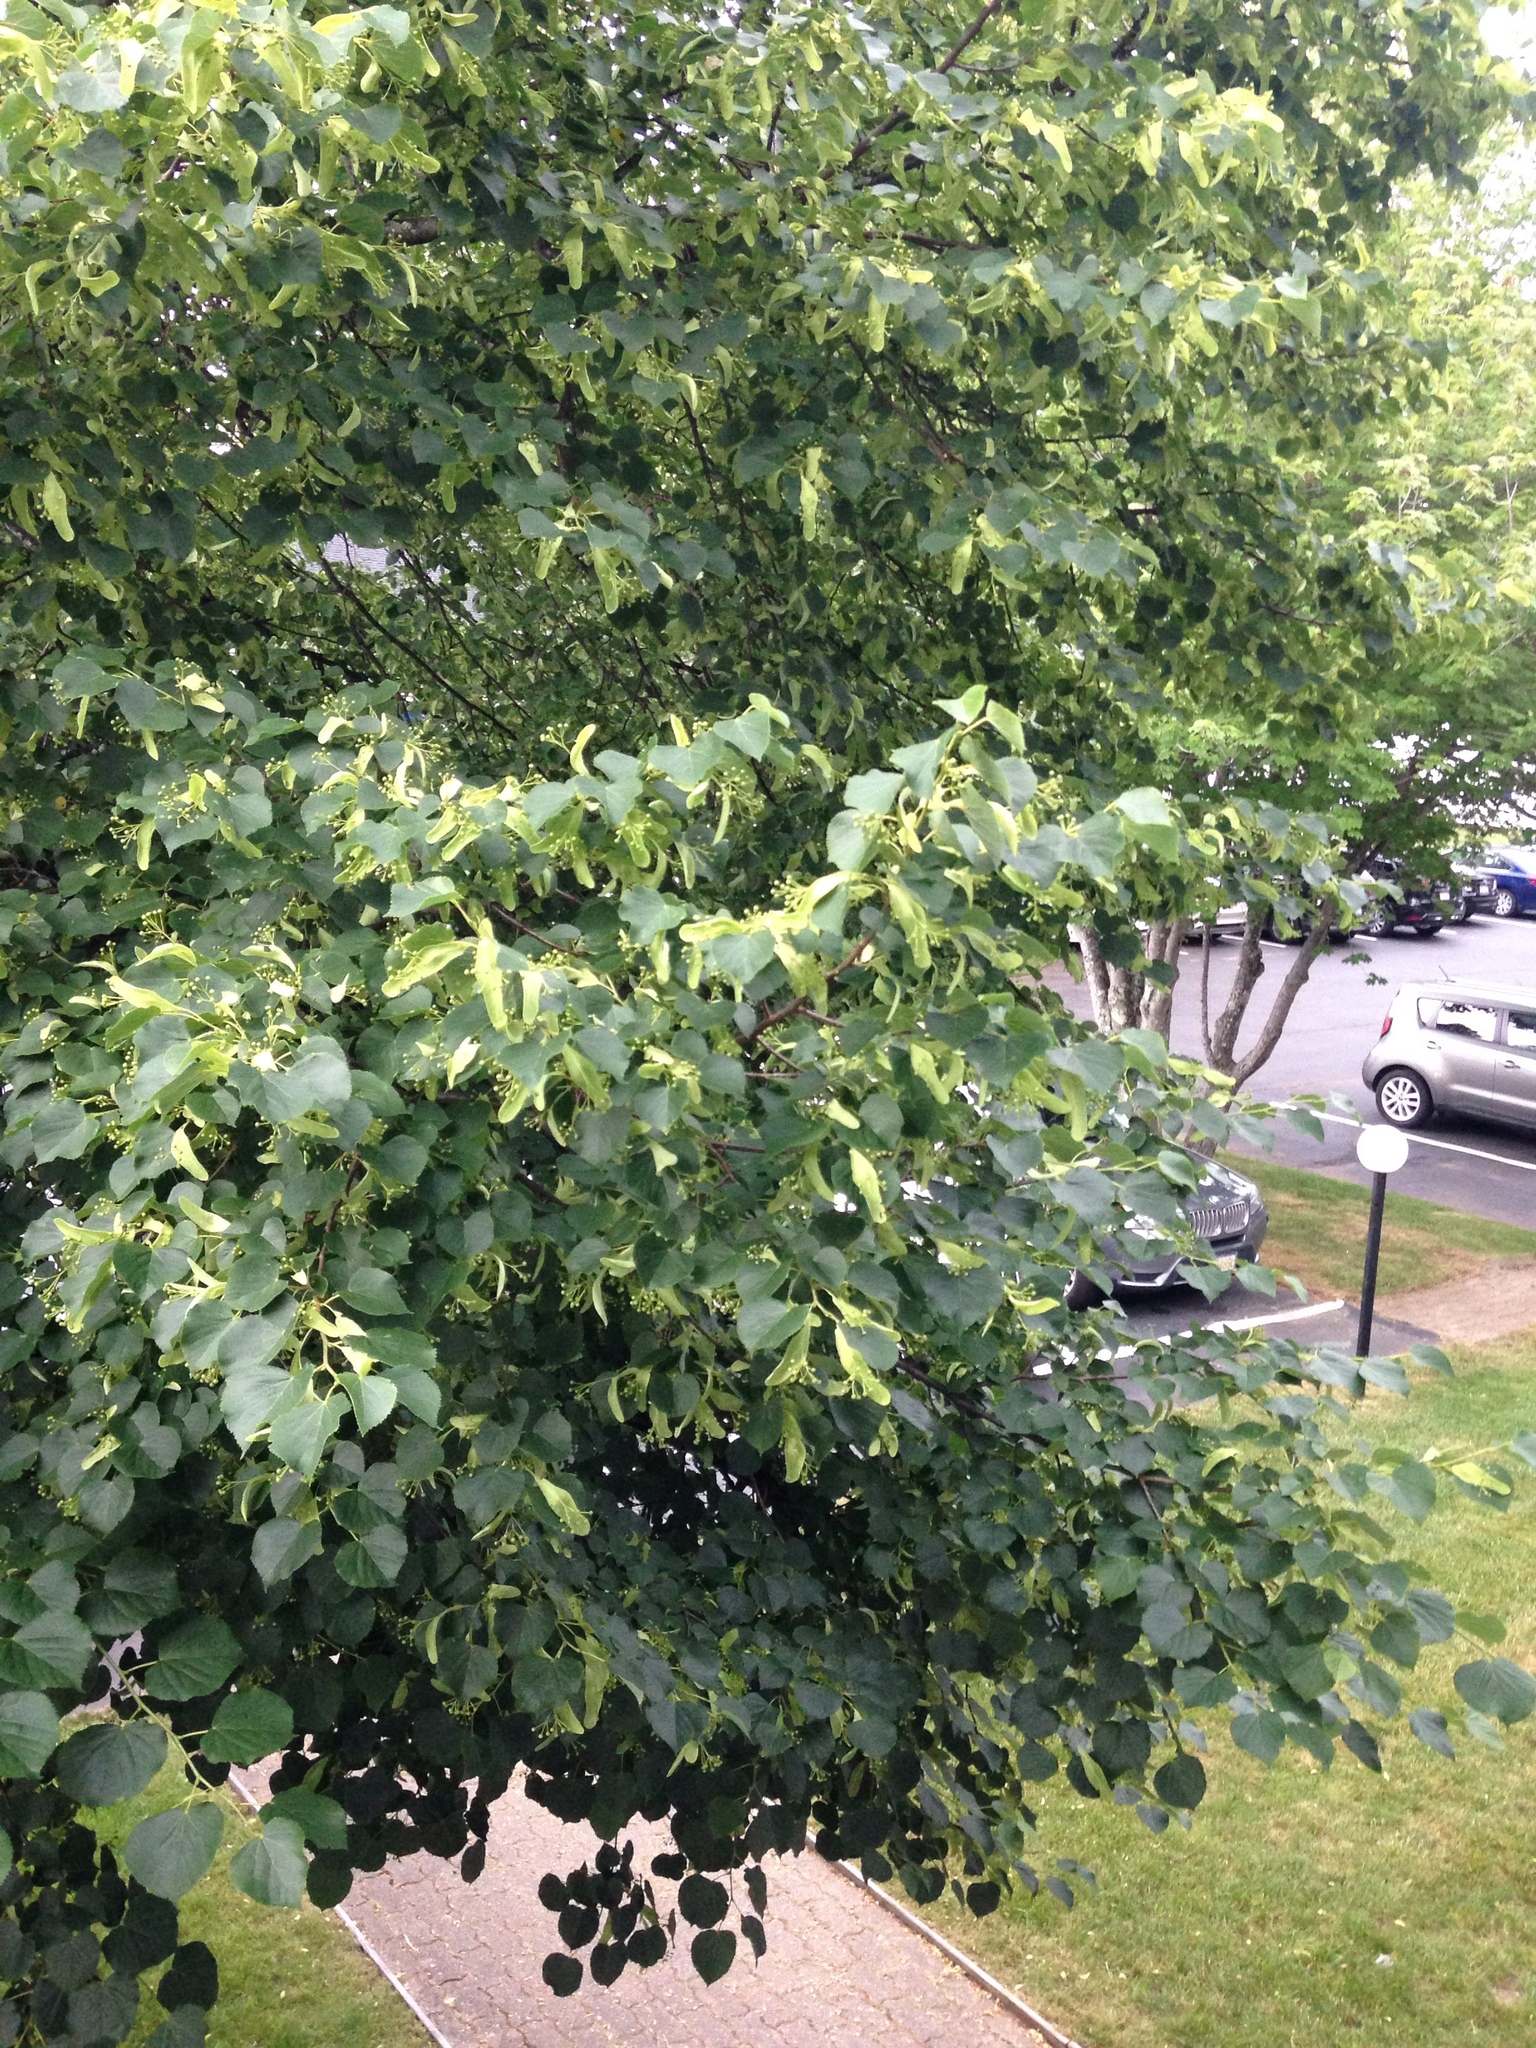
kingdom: Plantae
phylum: Tracheophyta
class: Magnoliopsida
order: Malvales
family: Malvaceae
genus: Tilia
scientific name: Tilia cordata
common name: Small-leaved lime
